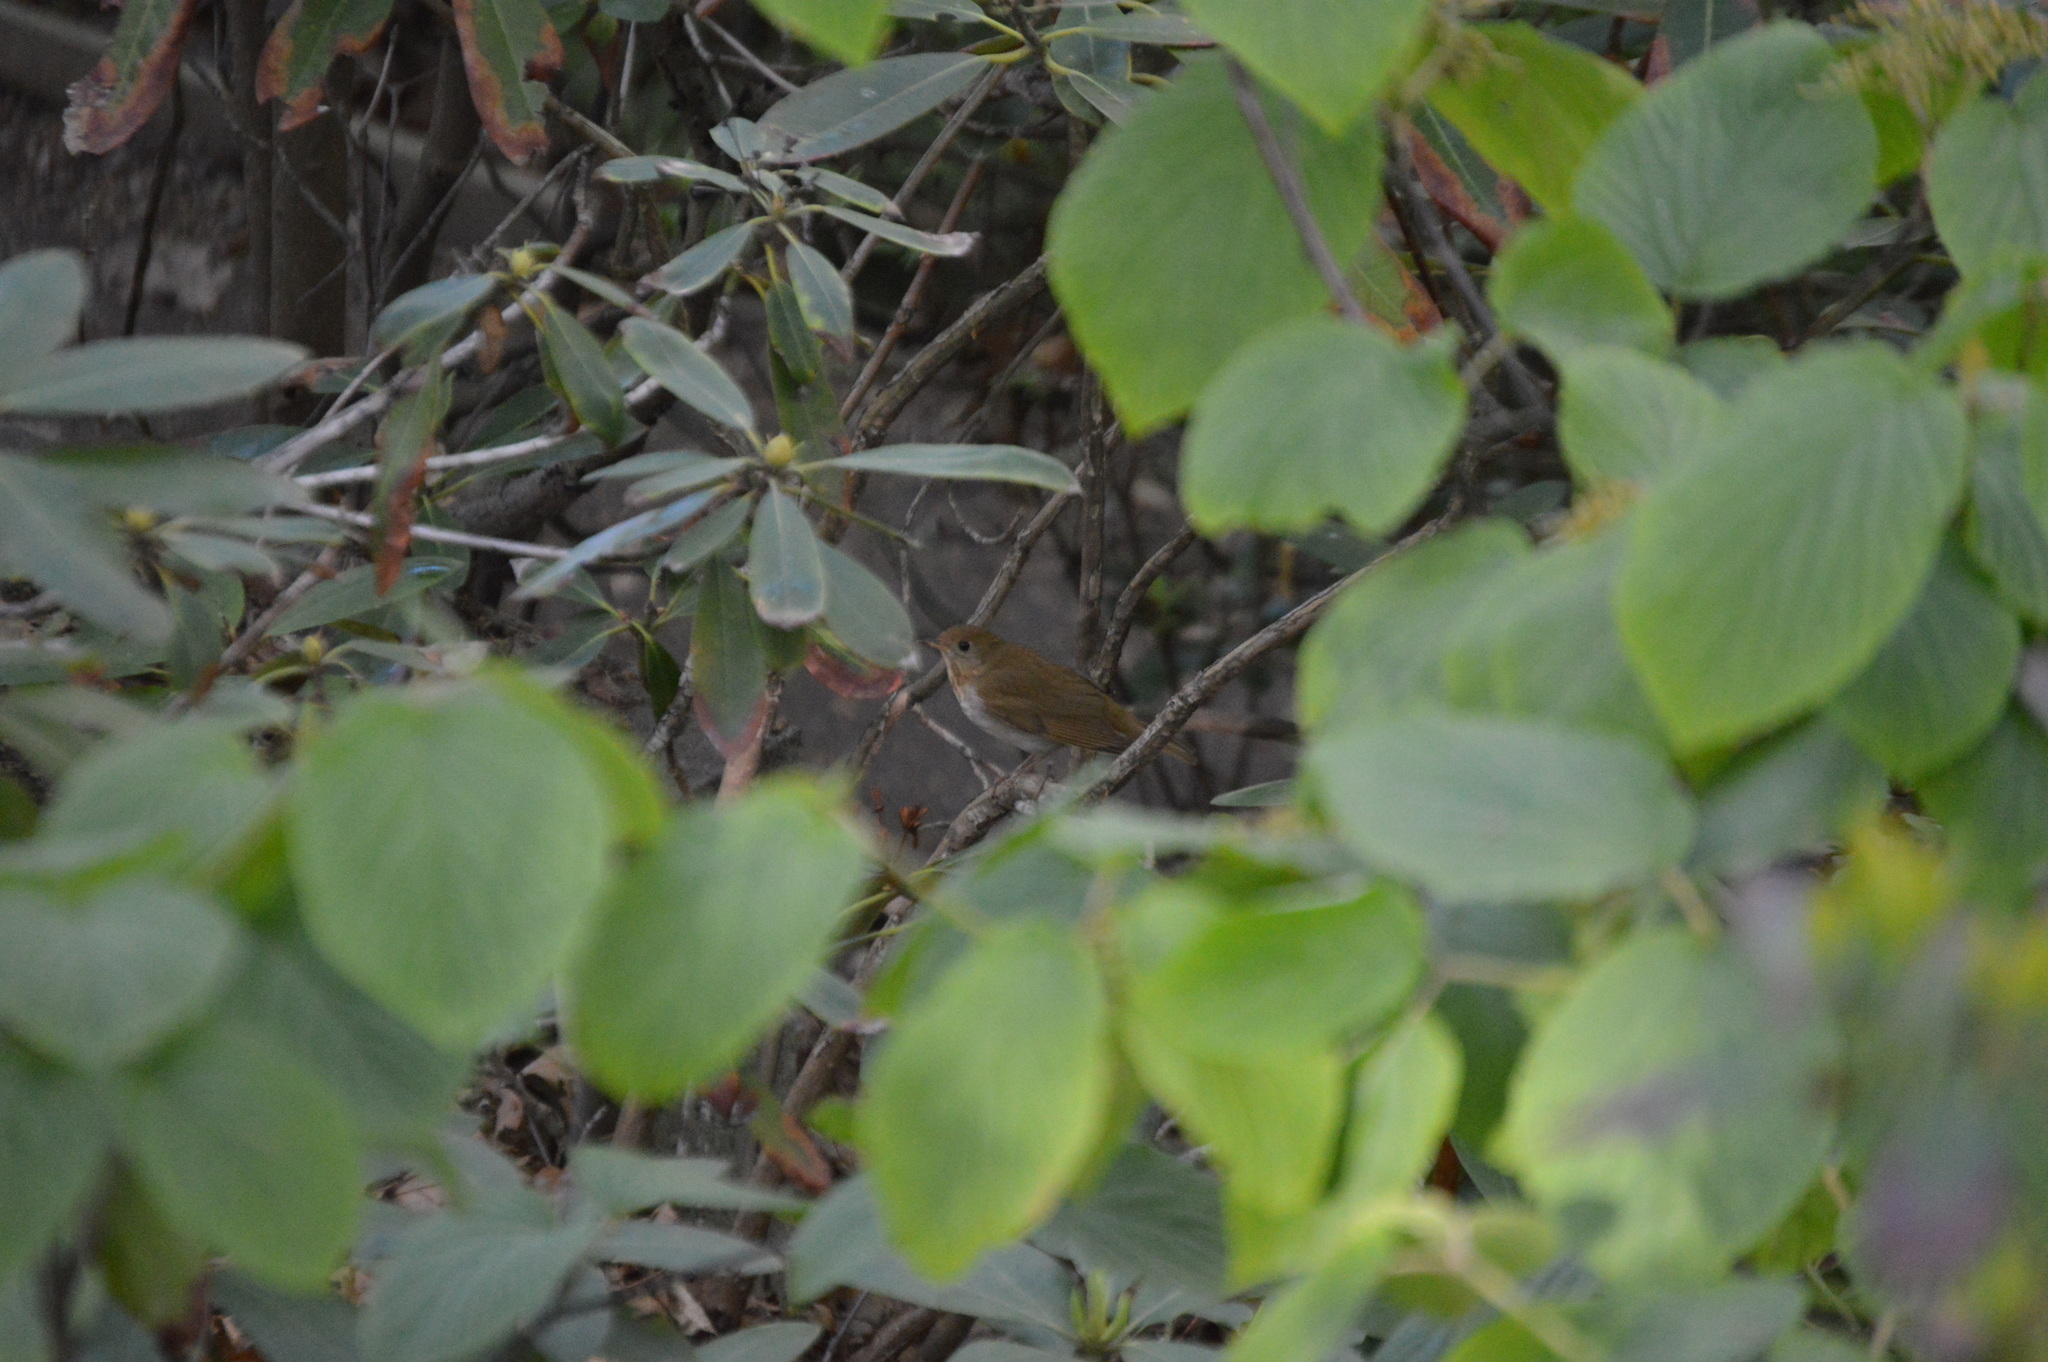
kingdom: Animalia
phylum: Chordata
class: Aves
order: Passeriformes
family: Turdidae
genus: Catharus
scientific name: Catharus fuscescens
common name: Veery
